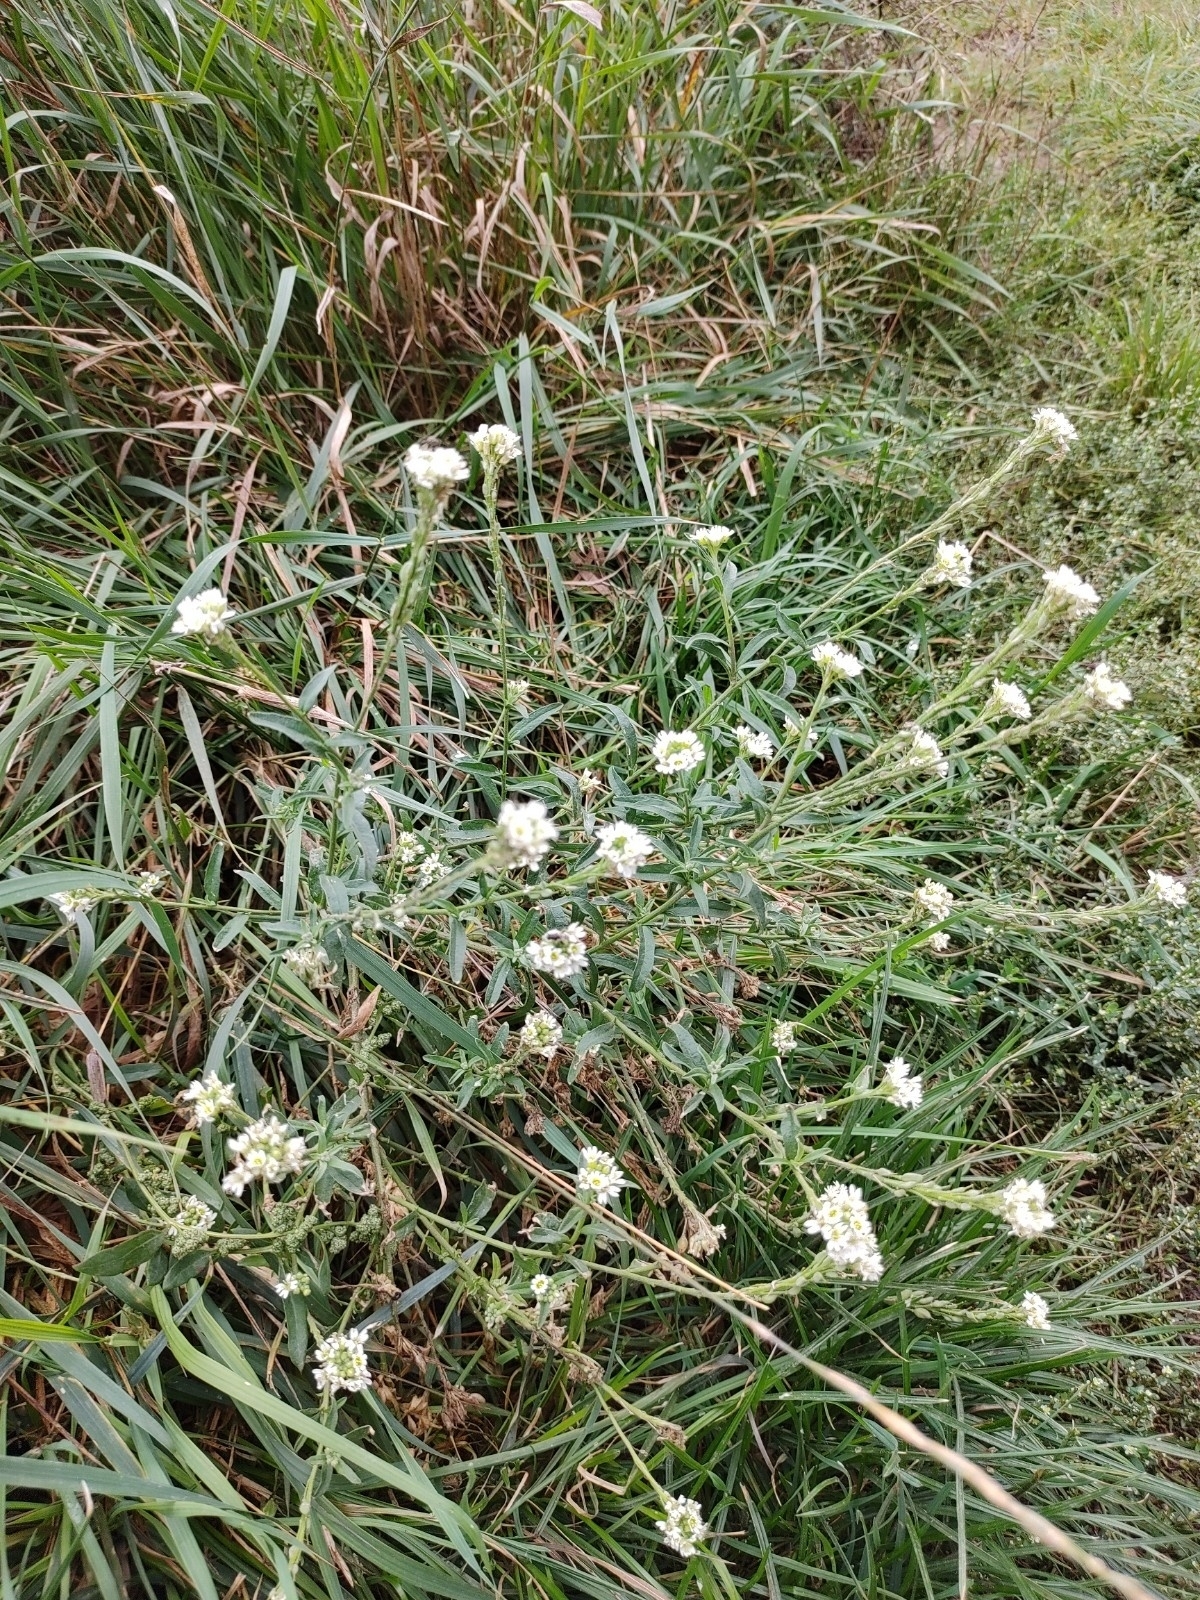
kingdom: Plantae
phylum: Tracheophyta
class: Magnoliopsida
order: Brassicales
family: Brassicaceae
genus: Berteroa
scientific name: Berteroa incana
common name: Hoary alison
